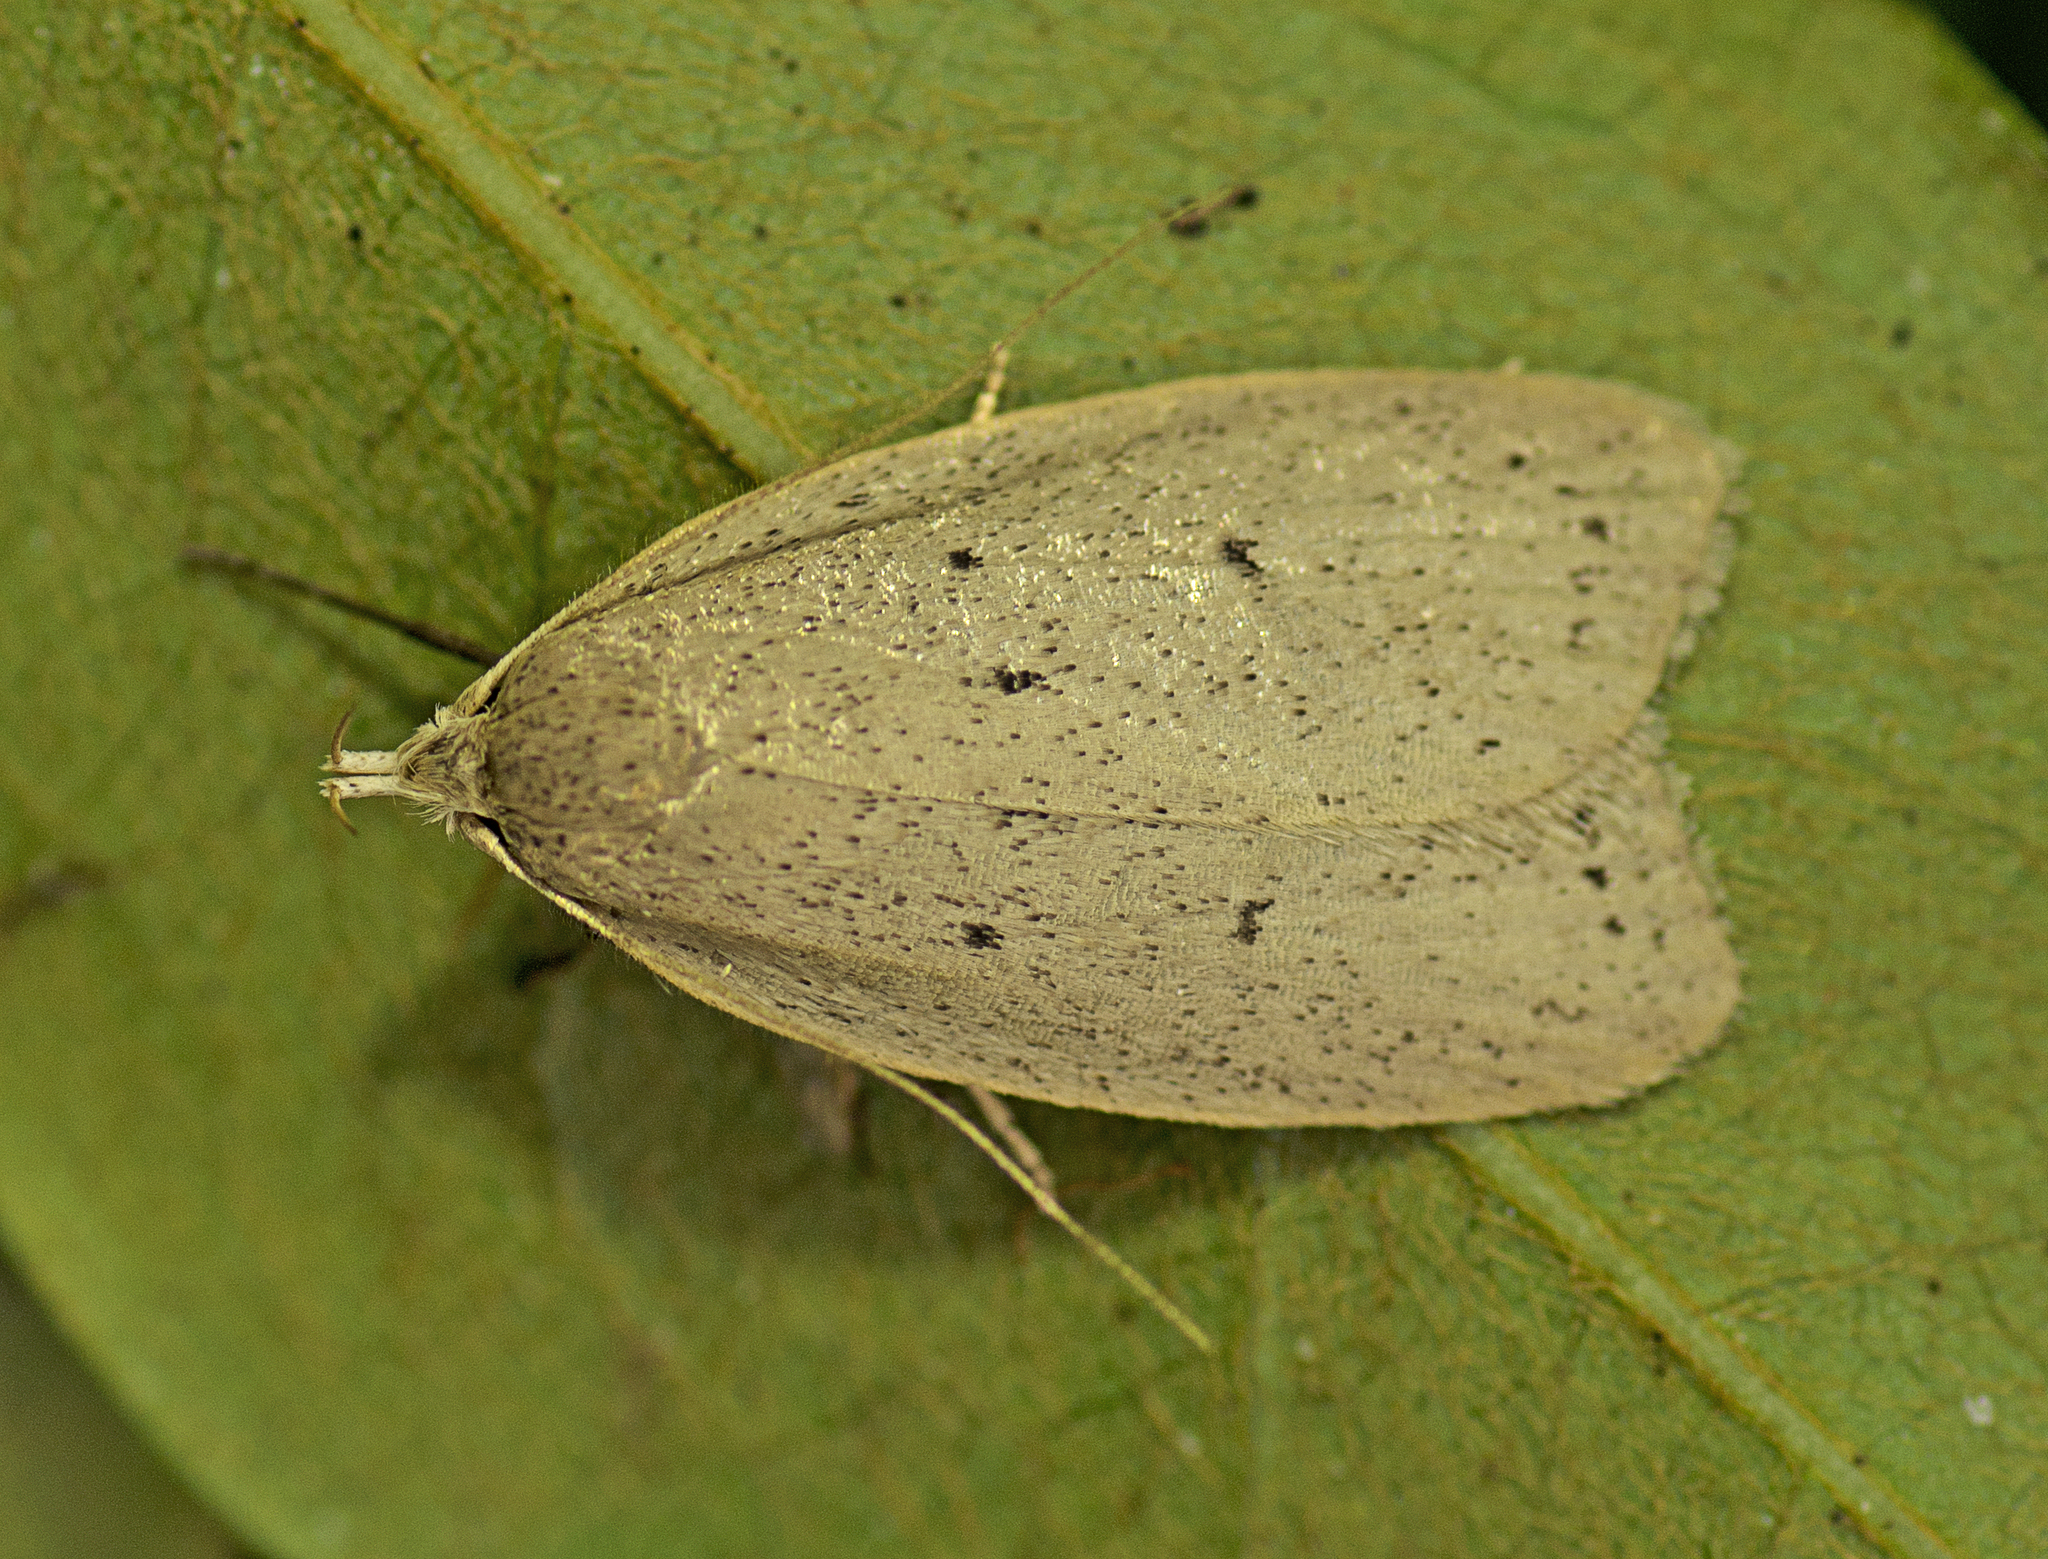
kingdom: Animalia
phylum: Arthropoda
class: Insecta
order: Lepidoptera
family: Oecophoridae
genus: Chezala
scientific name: Chezala privatella
